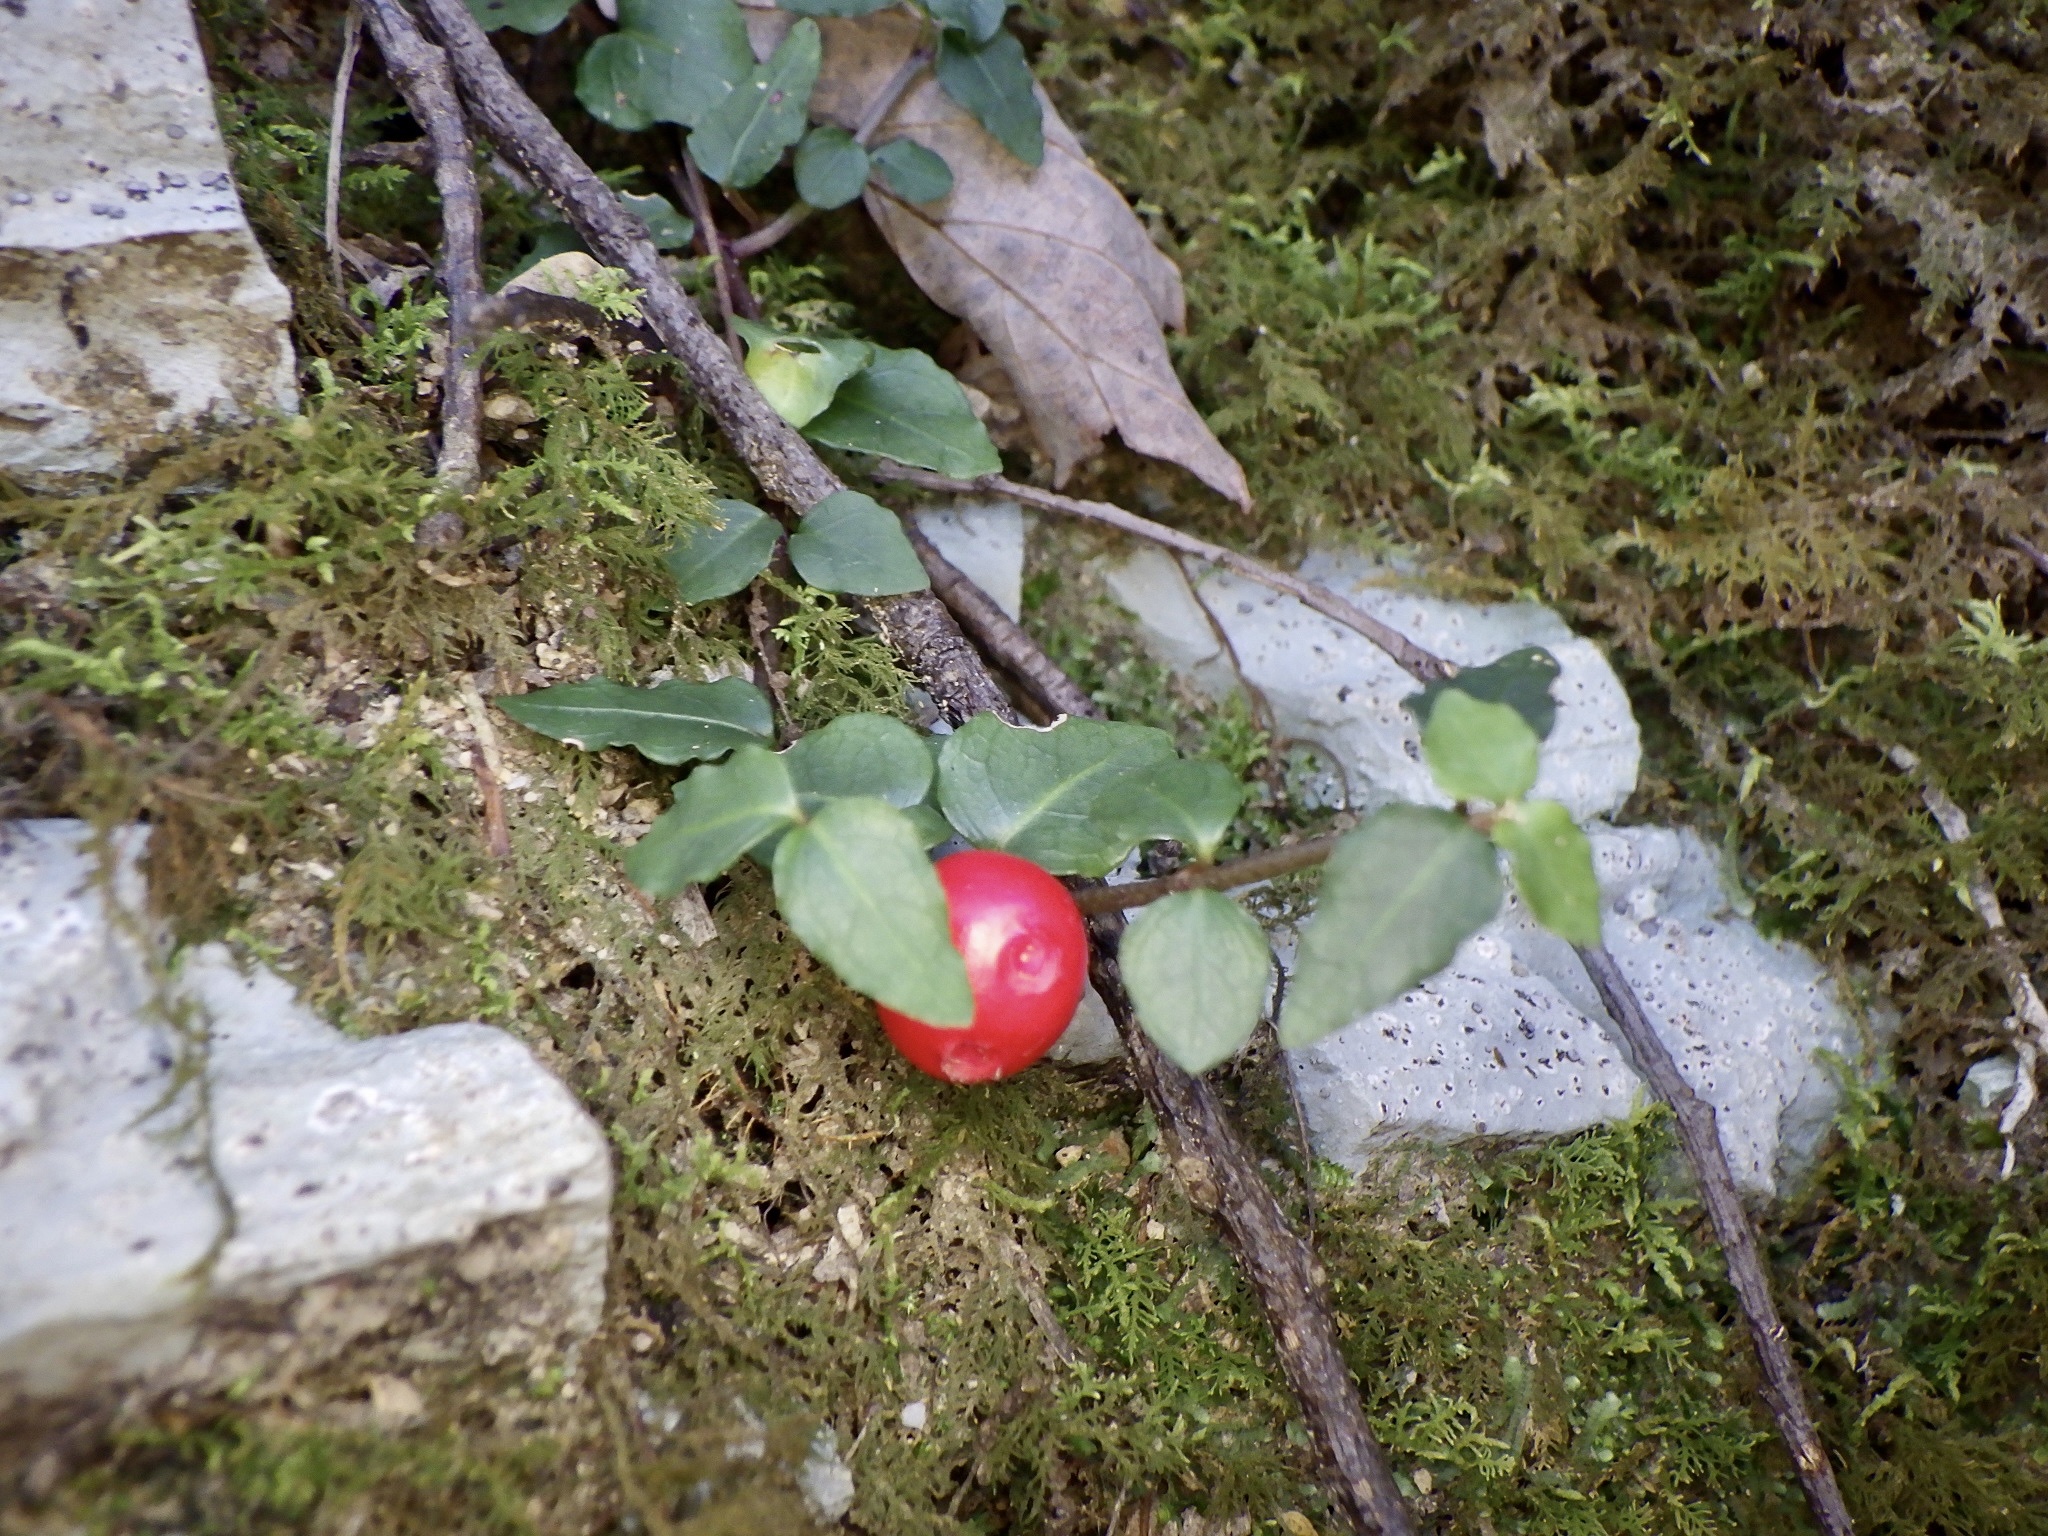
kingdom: Plantae
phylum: Tracheophyta
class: Magnoliopsida
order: Gentianales
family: Rubiaceae
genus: Mitchella
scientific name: Mitchella undulata
